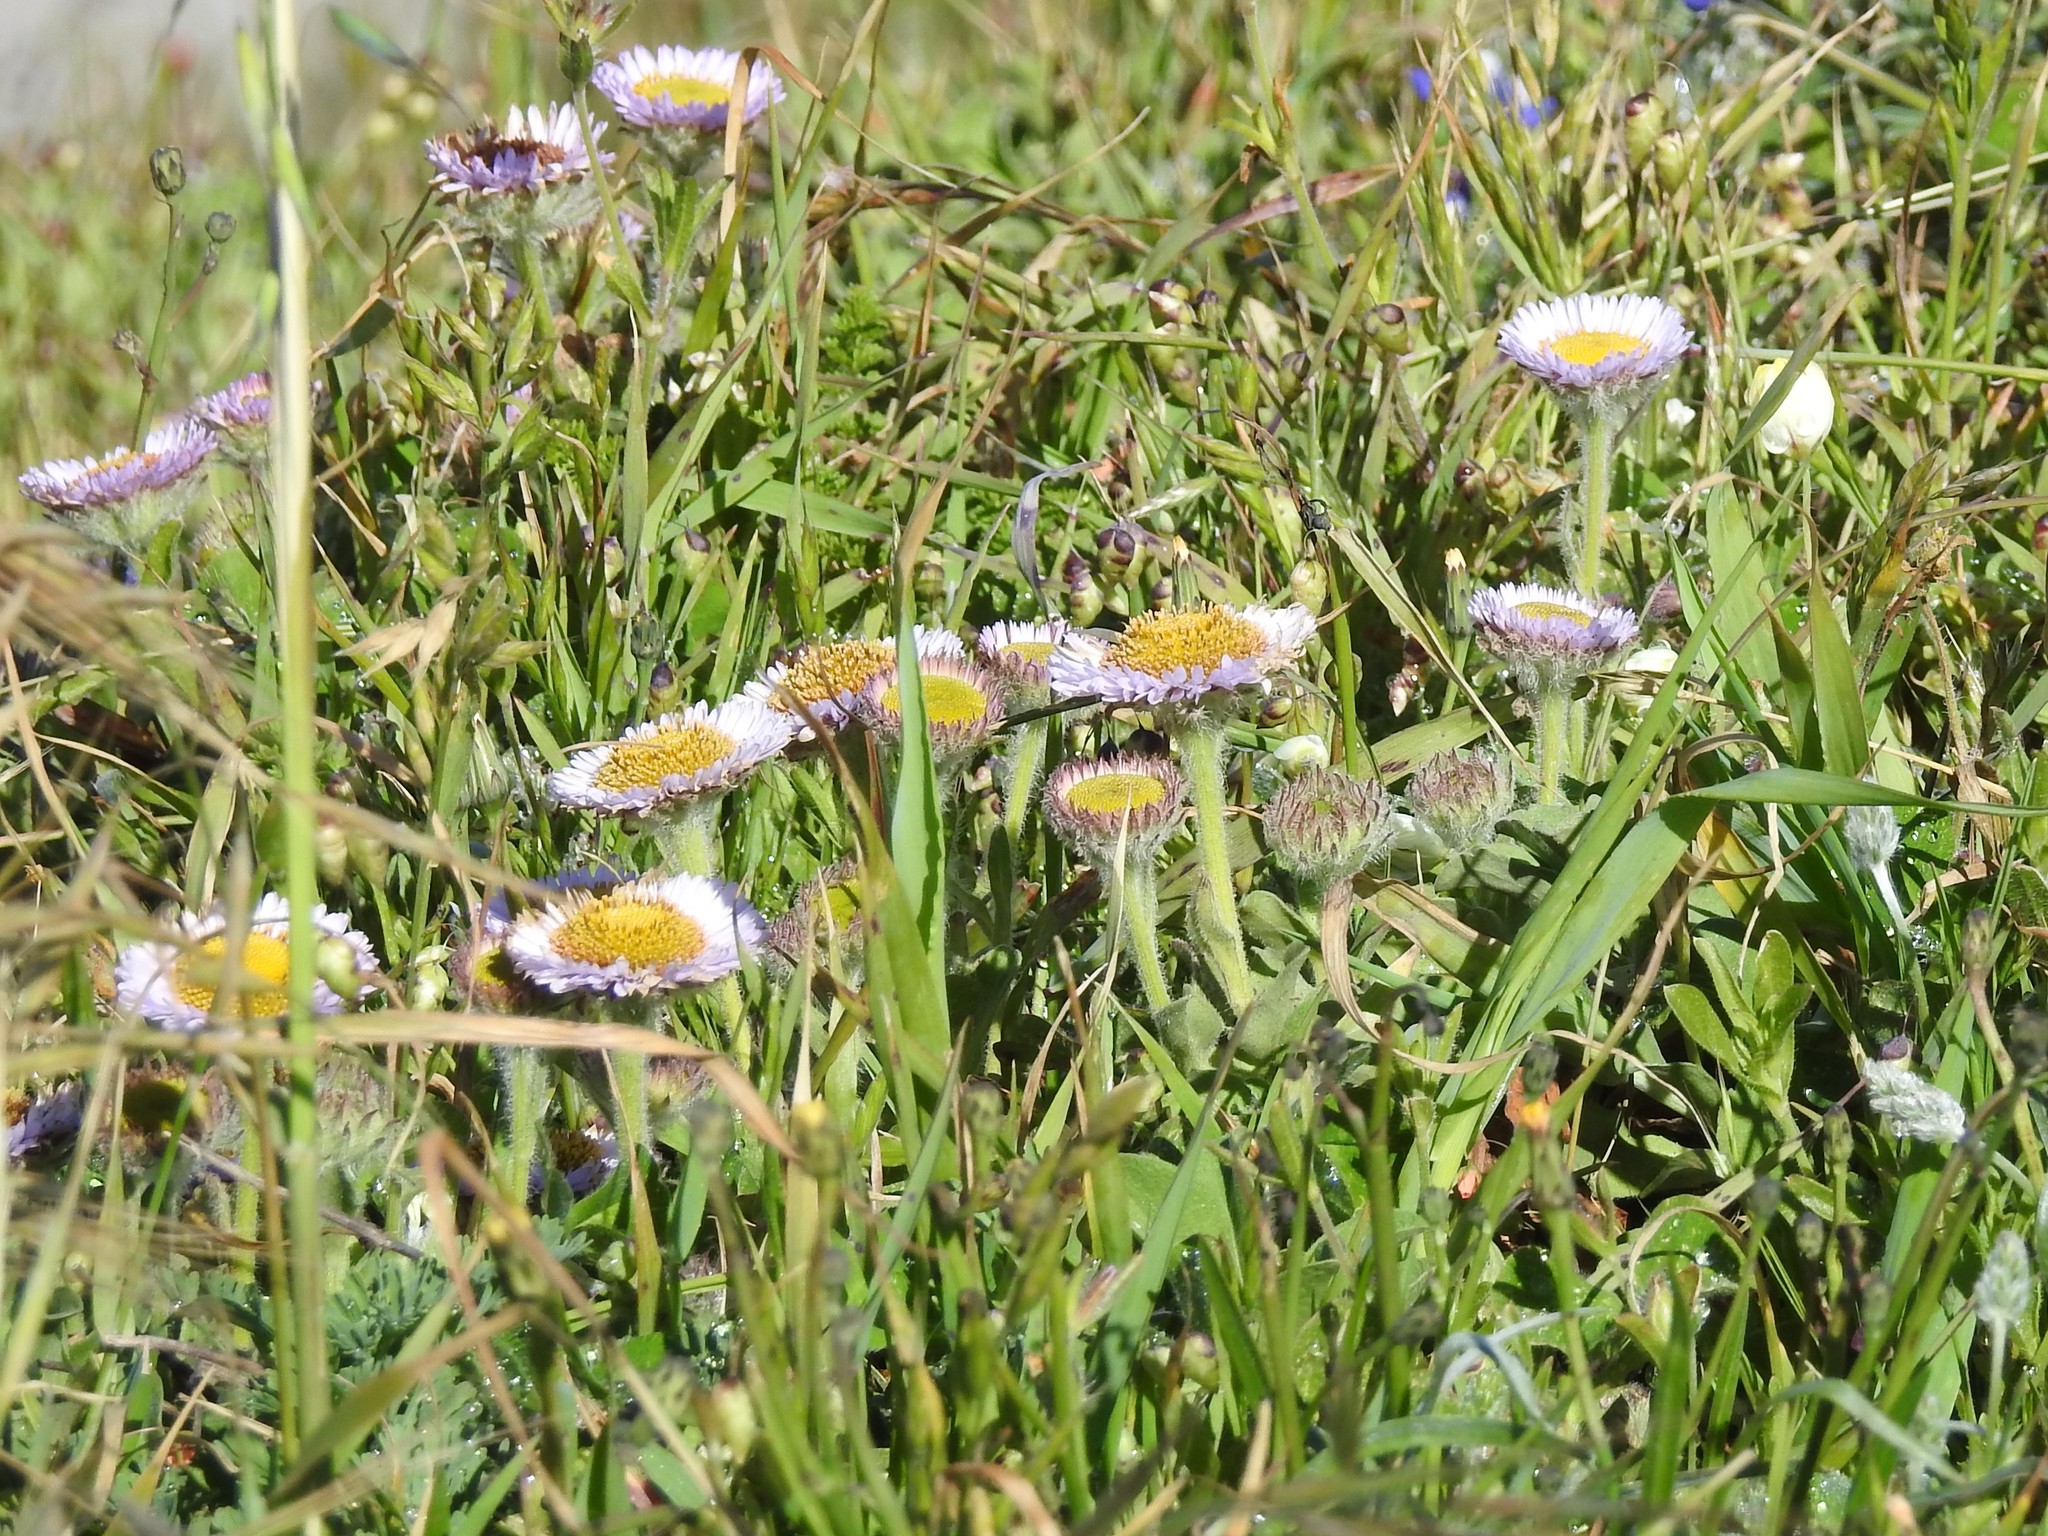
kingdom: Plantae
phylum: Tracheophyta
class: Magnoliopsida
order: Asterales
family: Asteraceae
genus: Erigeron
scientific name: Erigeron glaucus
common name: Seaside daisy
